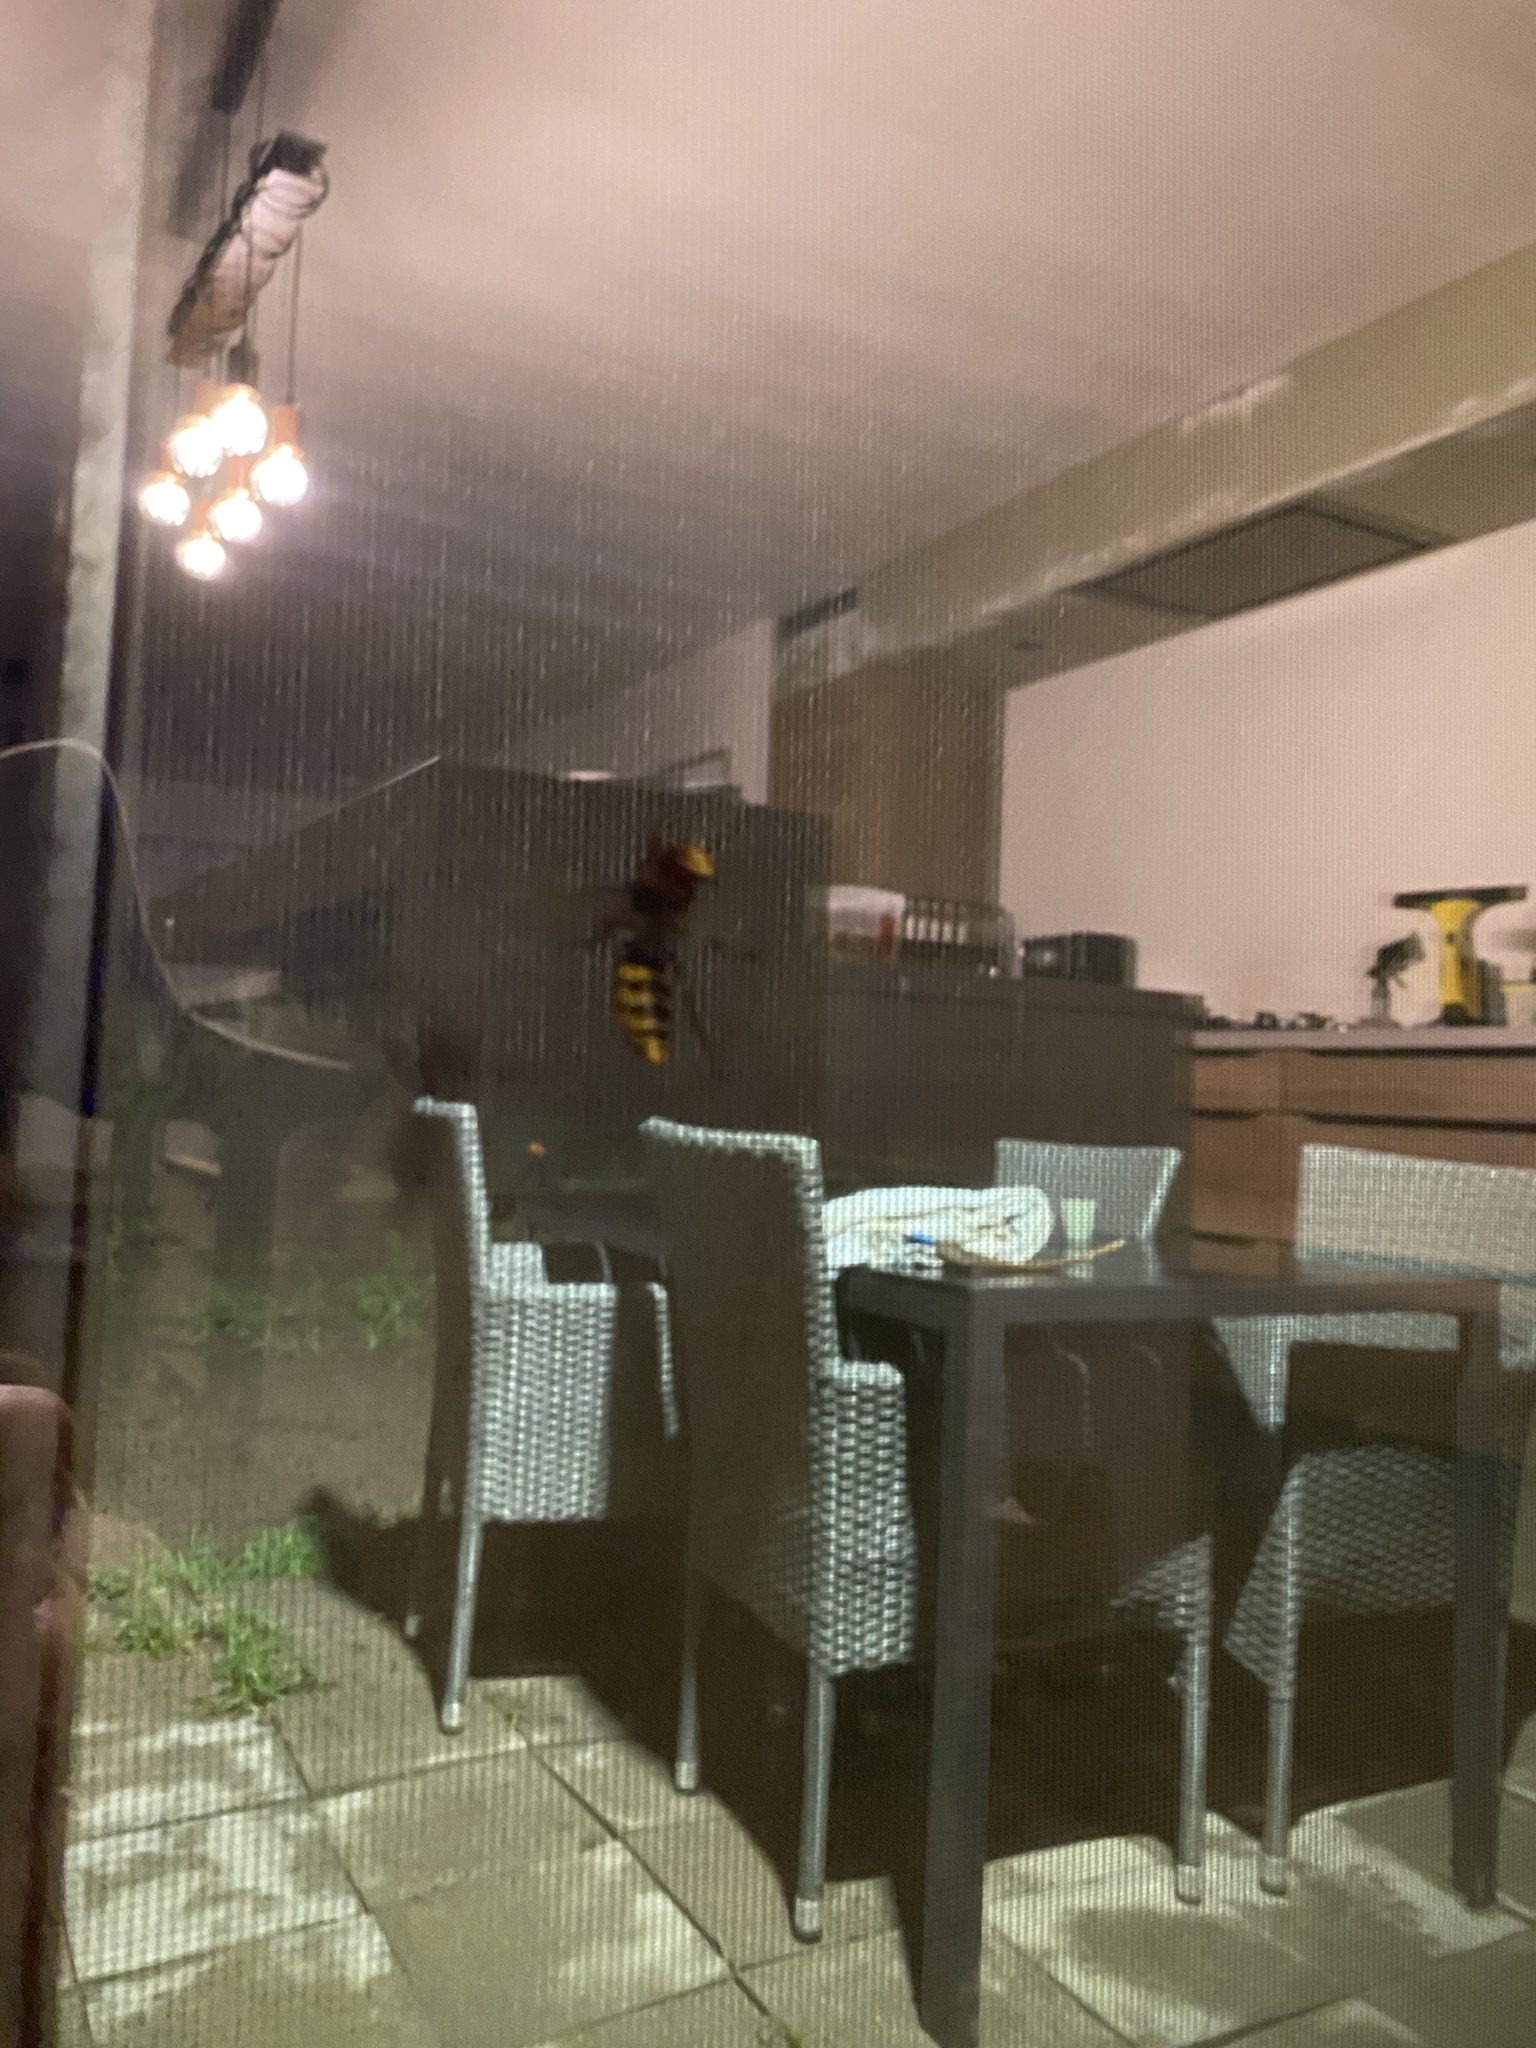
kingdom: Animalia
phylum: Arthropoda
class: Insecta
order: Hymenoptera
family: Vespidae
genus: Vespa
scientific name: Vespa crabro
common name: Hornet
